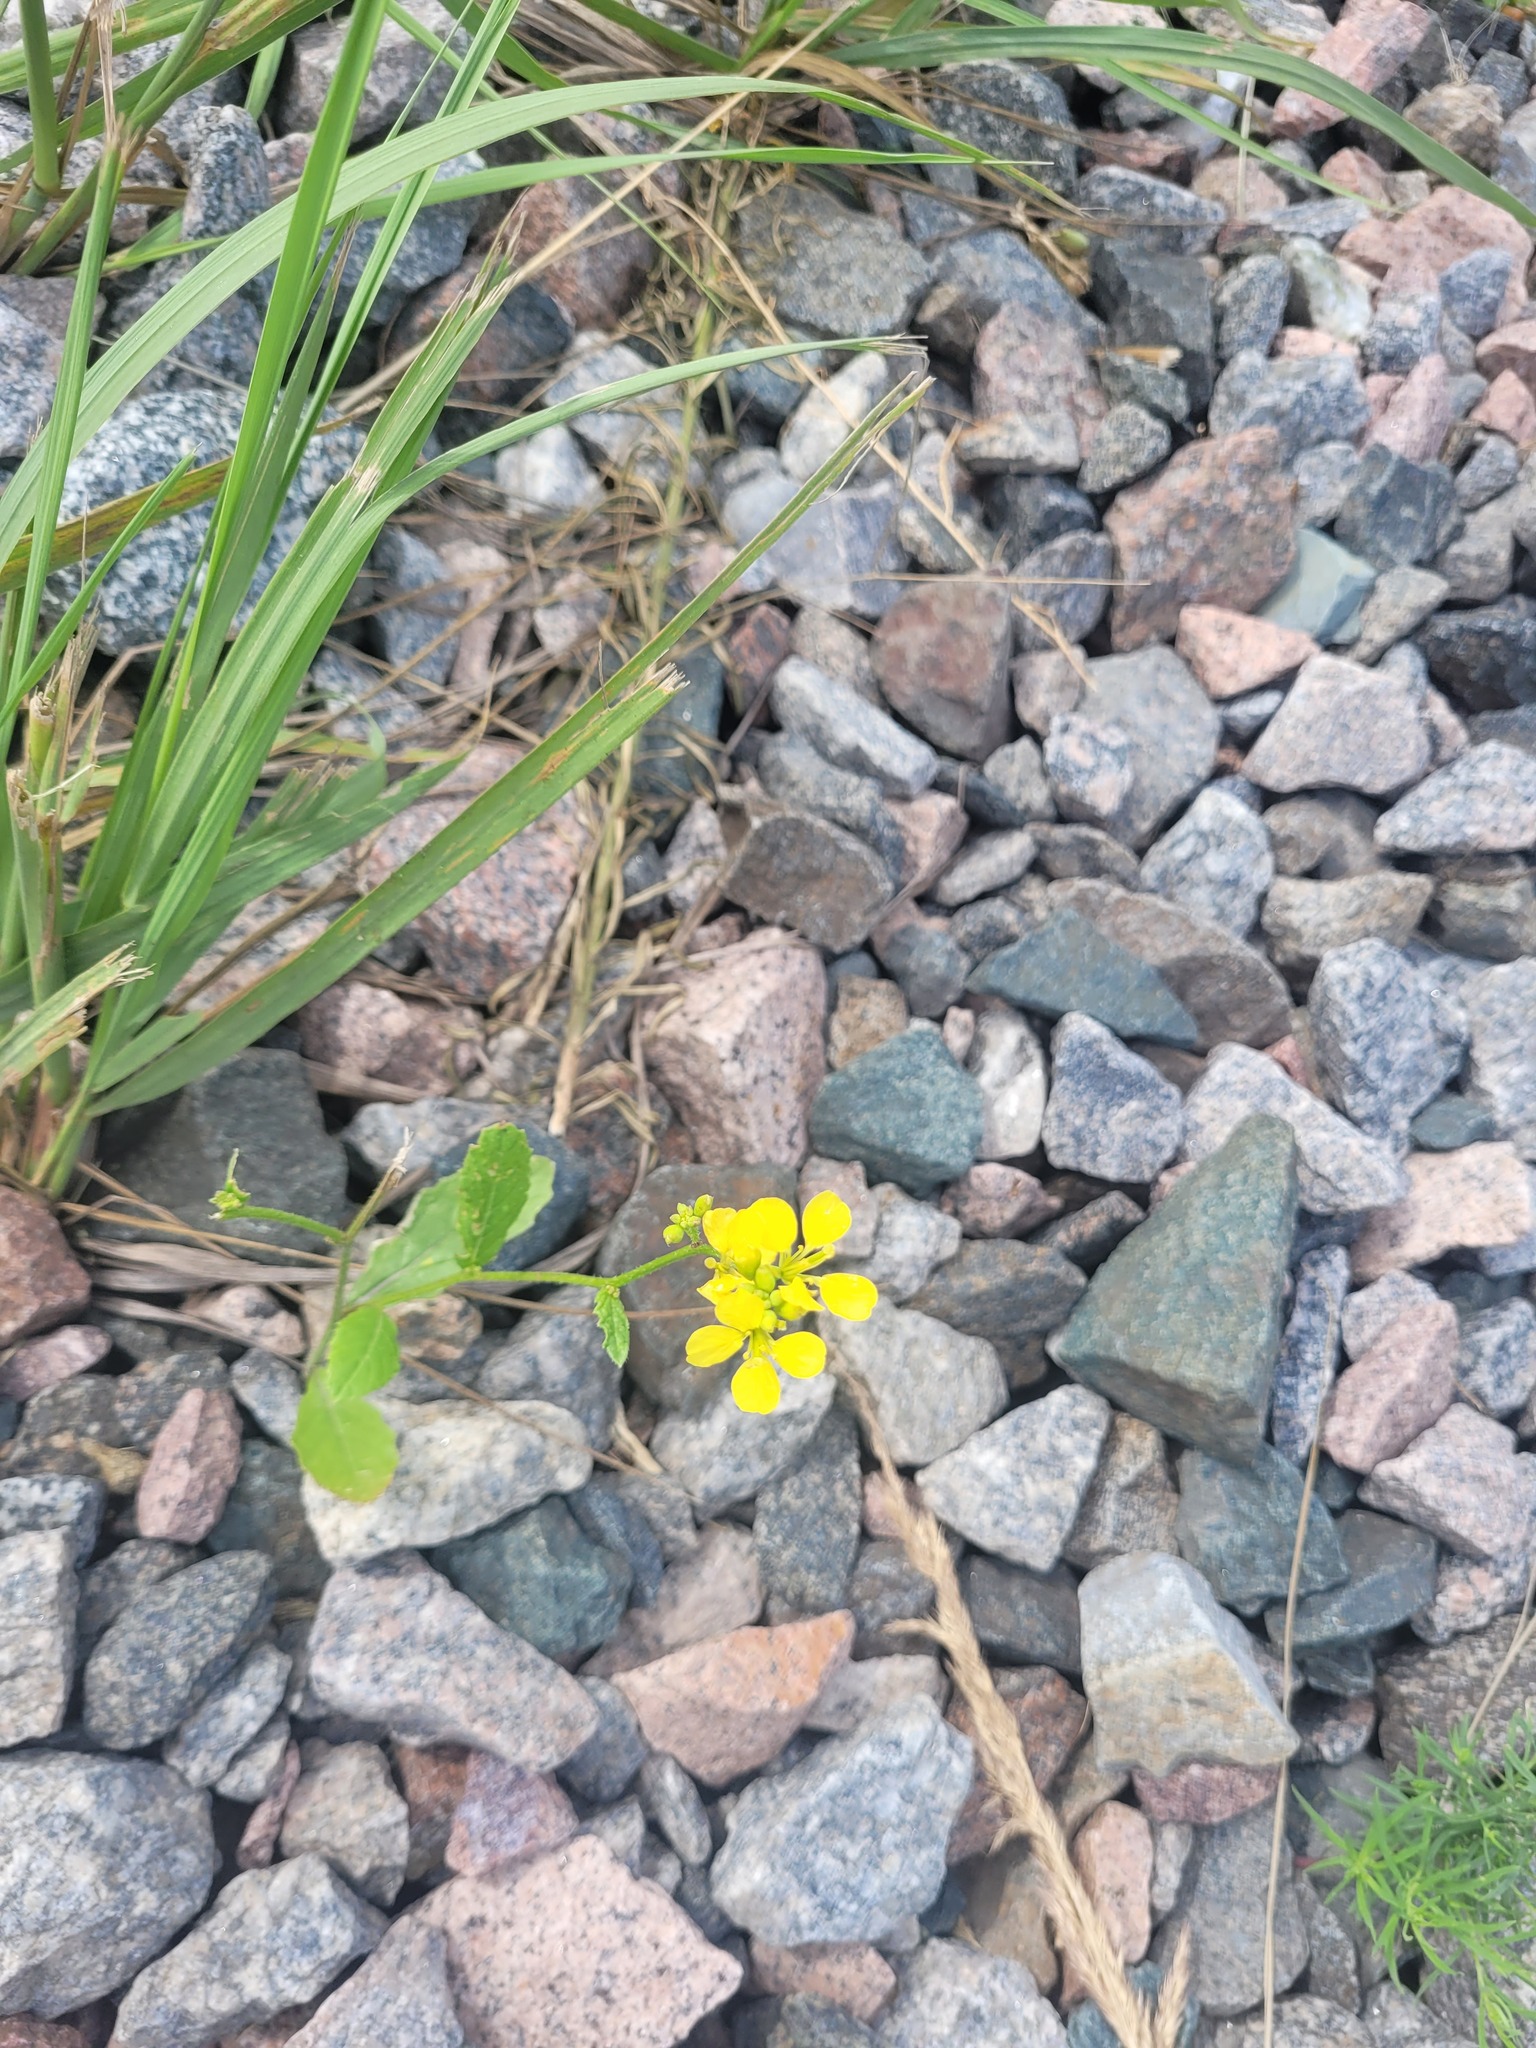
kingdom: Plantae
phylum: Tracheophyta
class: Magnoliopsida
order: Brassicales
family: Brassicaceae
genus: Sinapis
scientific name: Sinapis arvensis
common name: Charlock
